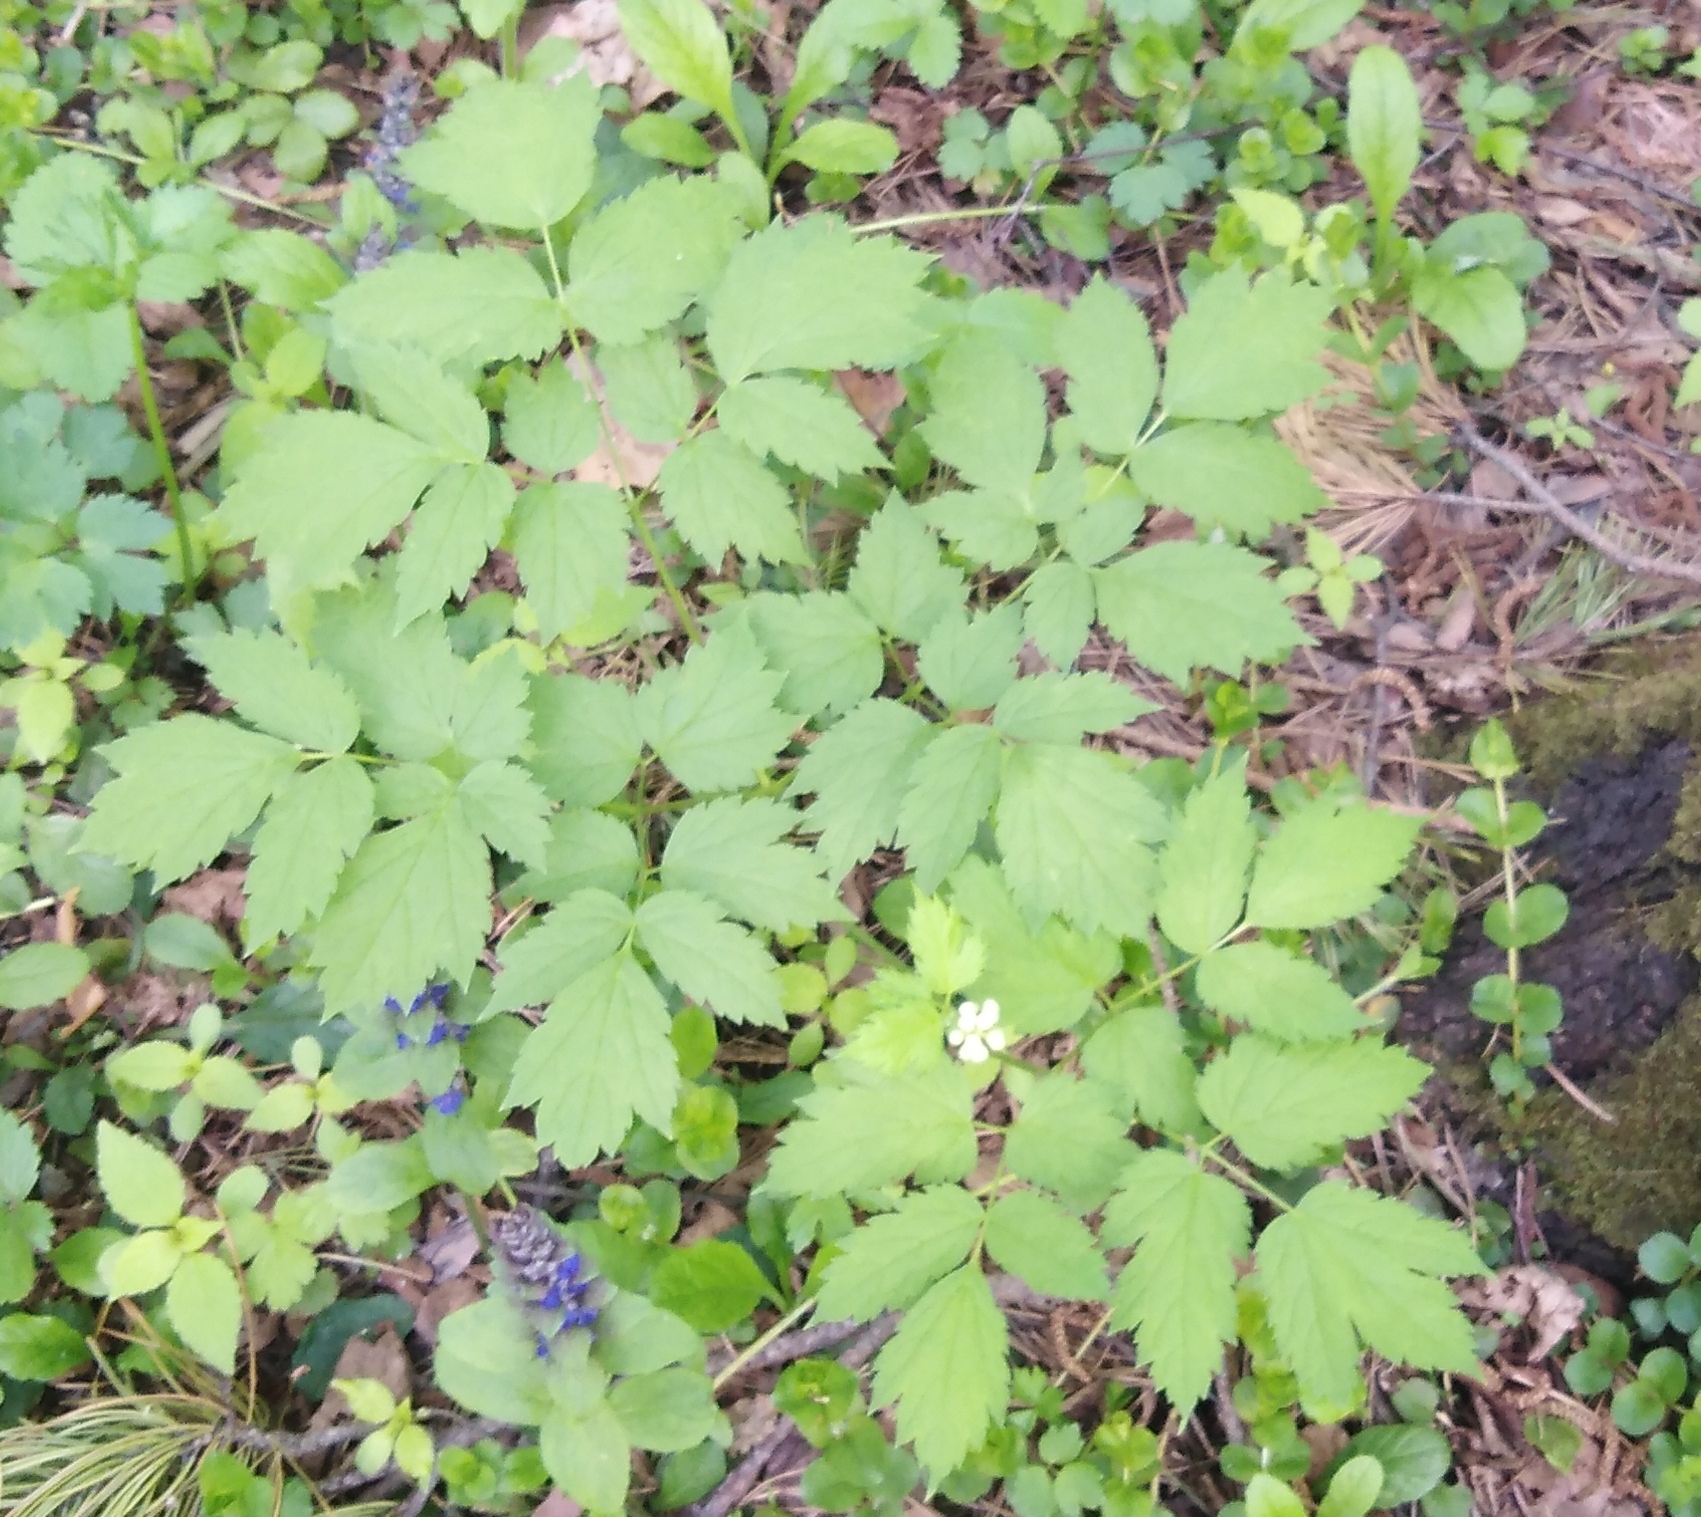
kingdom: Plantae
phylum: Tracheophyta
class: Magnoliopsida
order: Ranunculales
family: Ranunculaceae
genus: Actaea
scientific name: Actaea spicata
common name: Baneberry
